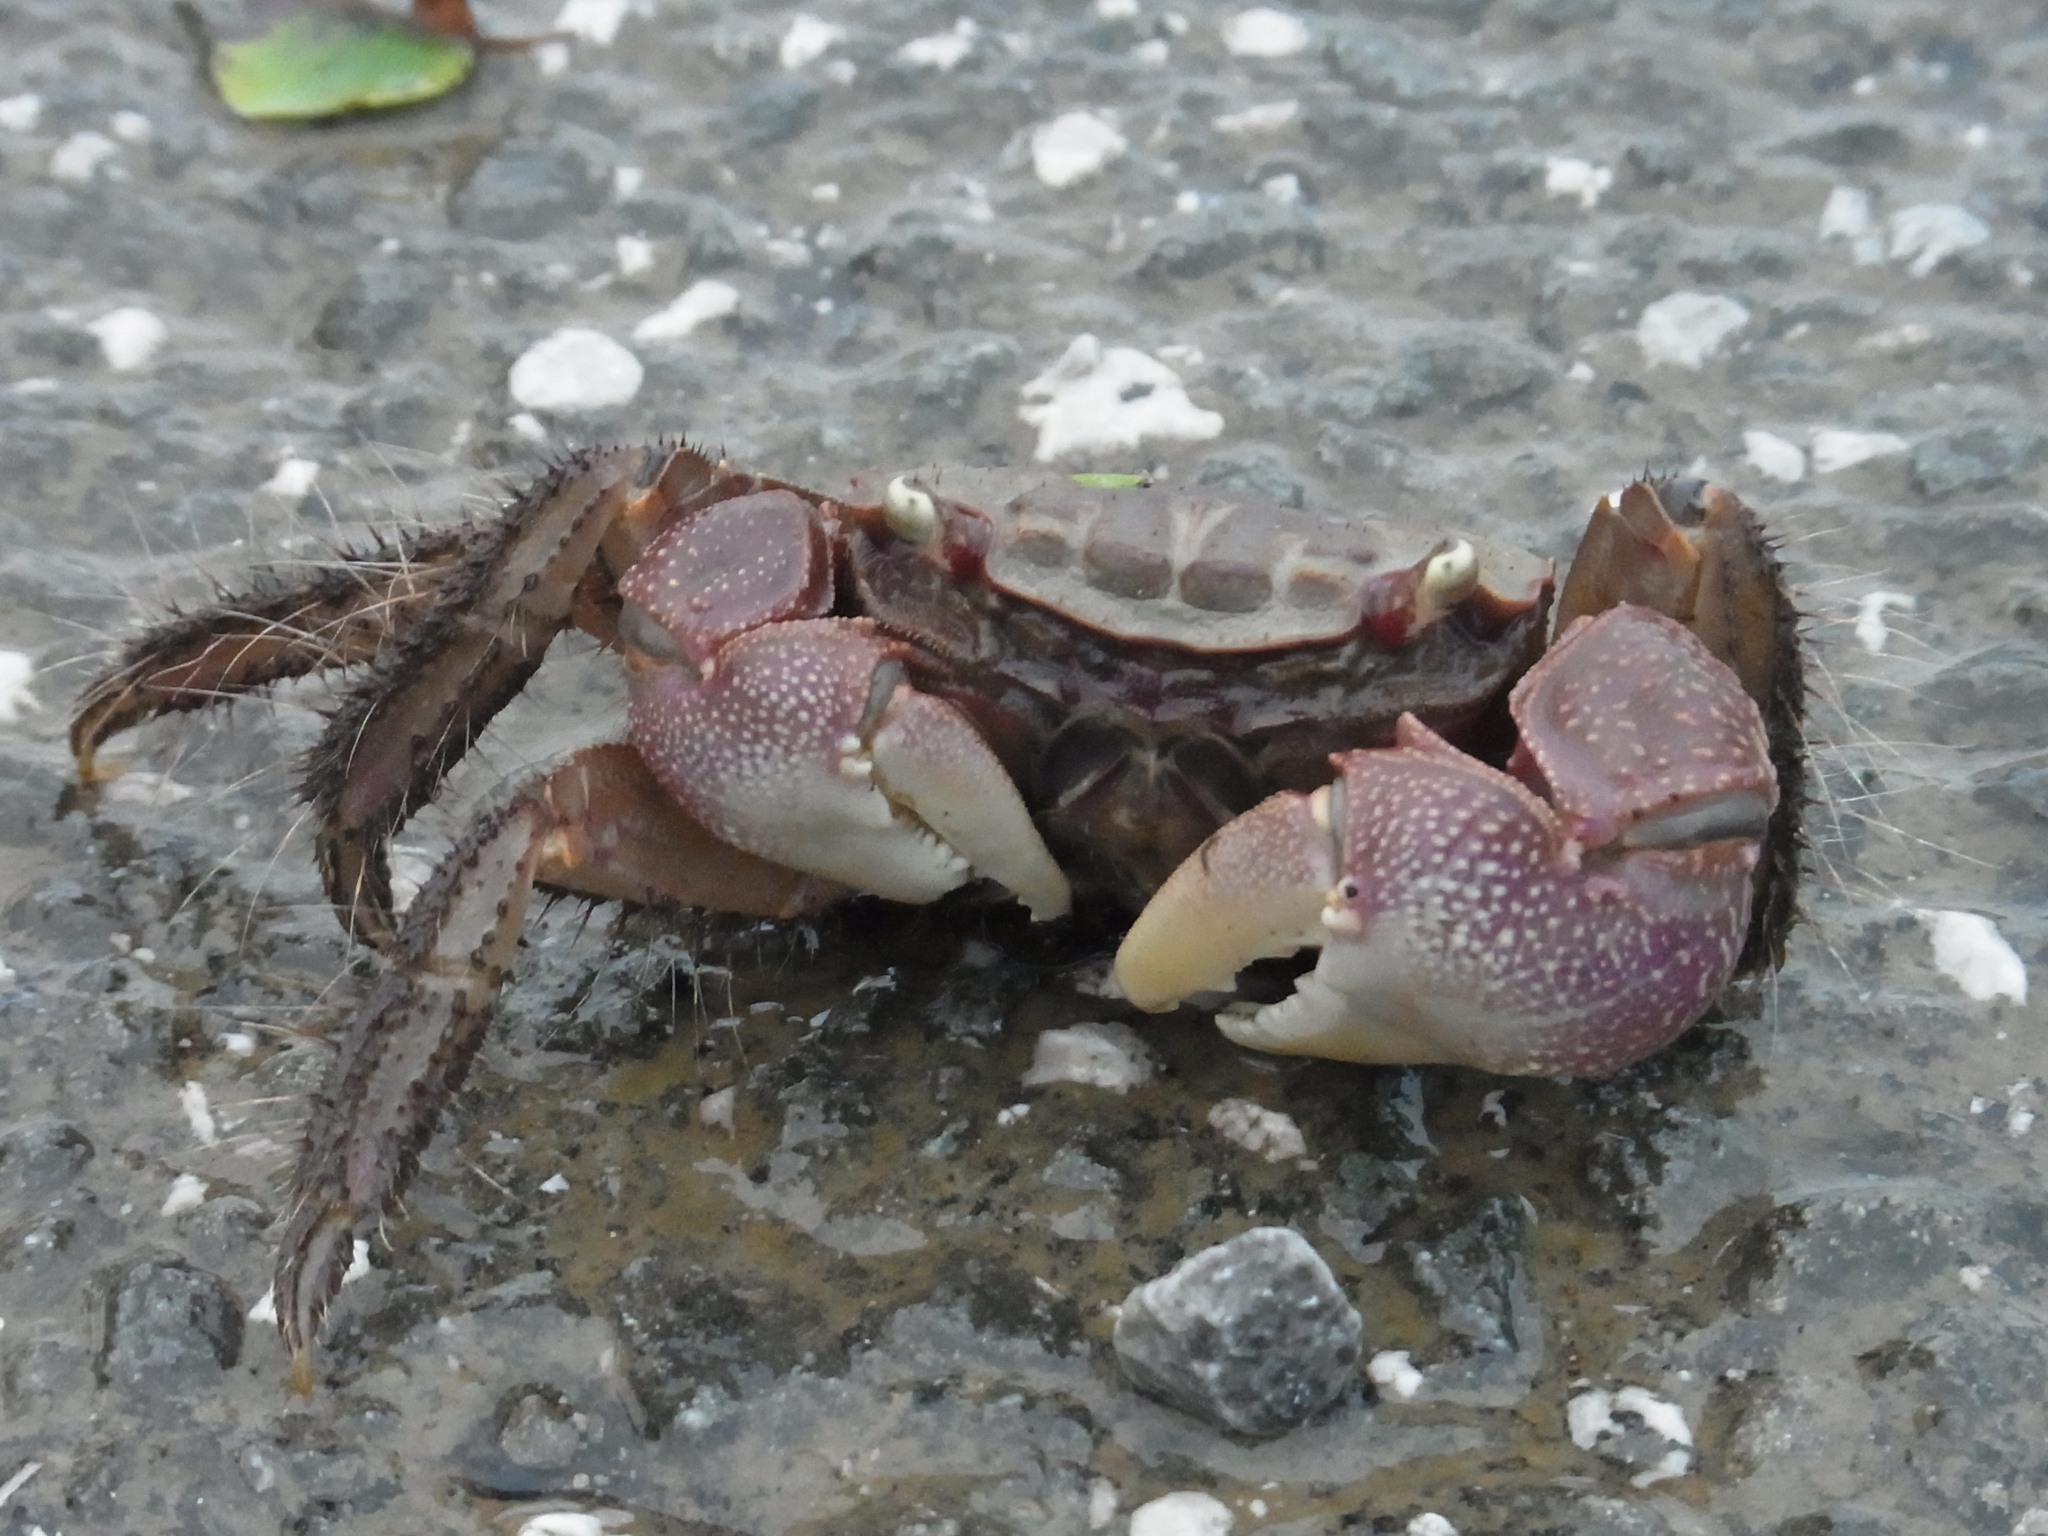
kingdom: Animalia
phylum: Arthropoda
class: Malacostraca
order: Decapoda
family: Sesarmidae
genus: Orisarma
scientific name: Orisarma dehaani
